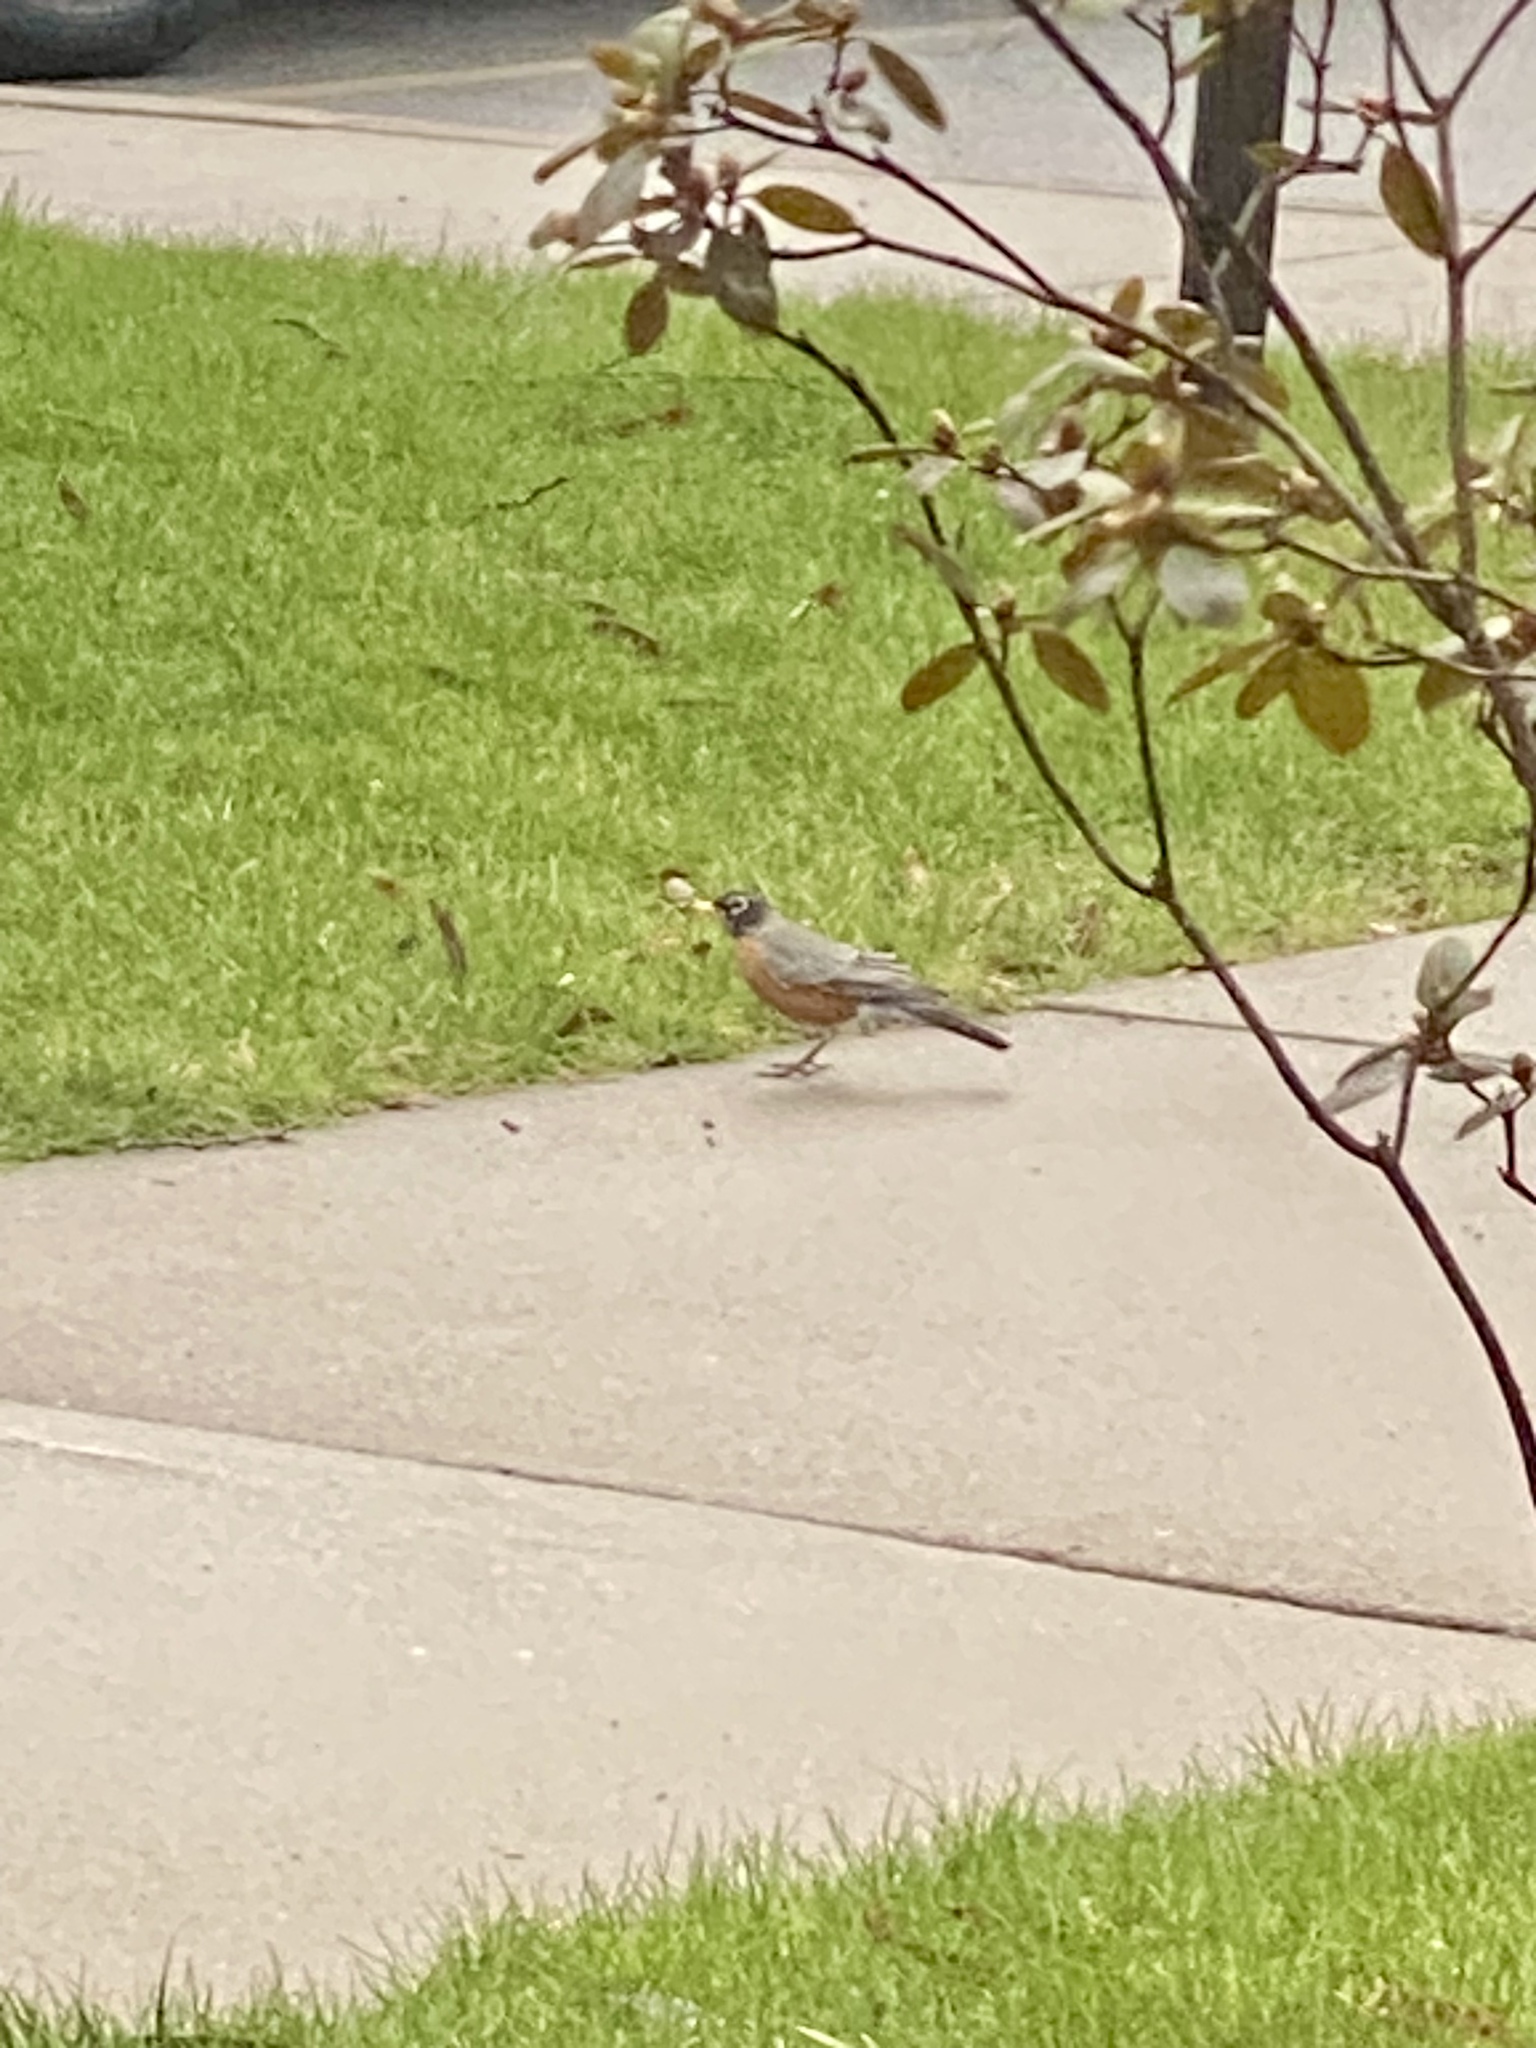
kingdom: Animalia
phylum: Chordata
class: Aves
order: Passeriformes
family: Turdidae
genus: Turdus
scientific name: Turdus migratorius
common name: American robin
